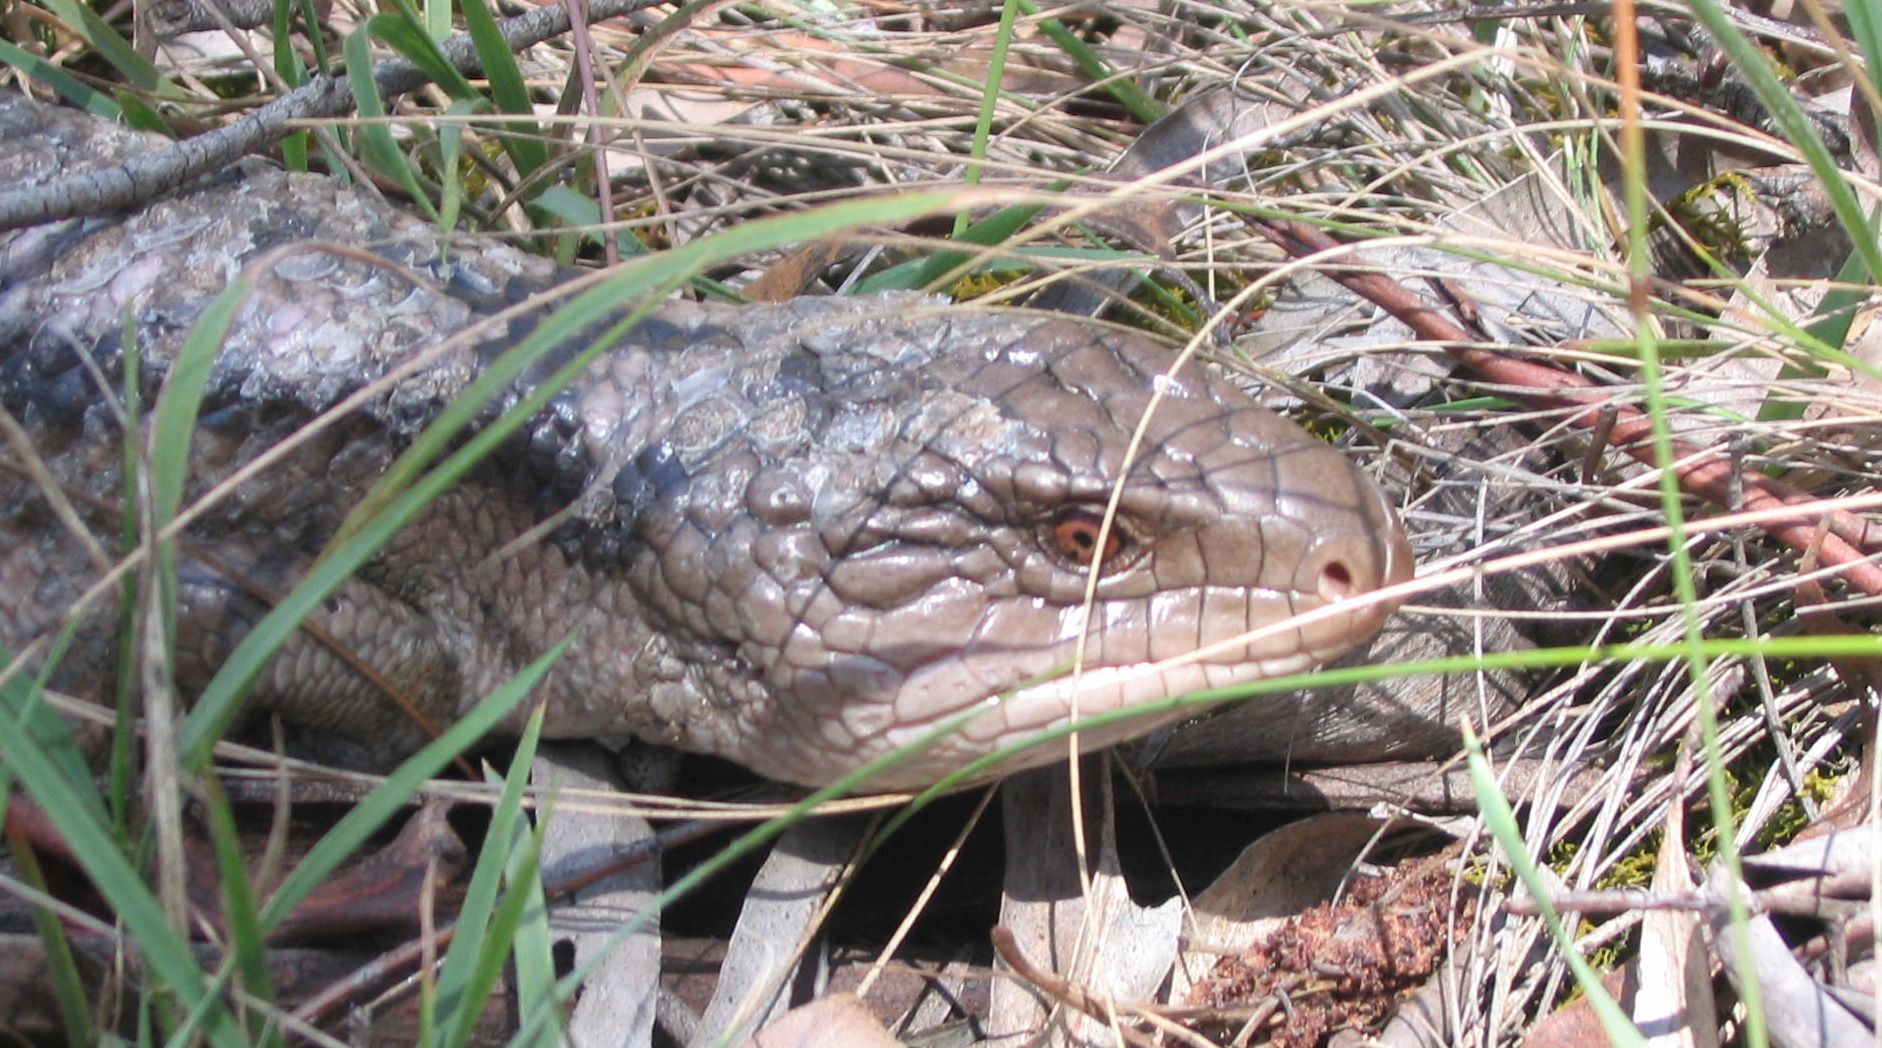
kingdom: Animalia
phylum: Chordata
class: Squamata
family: Scincidae
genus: Tiliqua
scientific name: Tiliqua nigrolutea
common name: Blotched blue-tongued lizard
